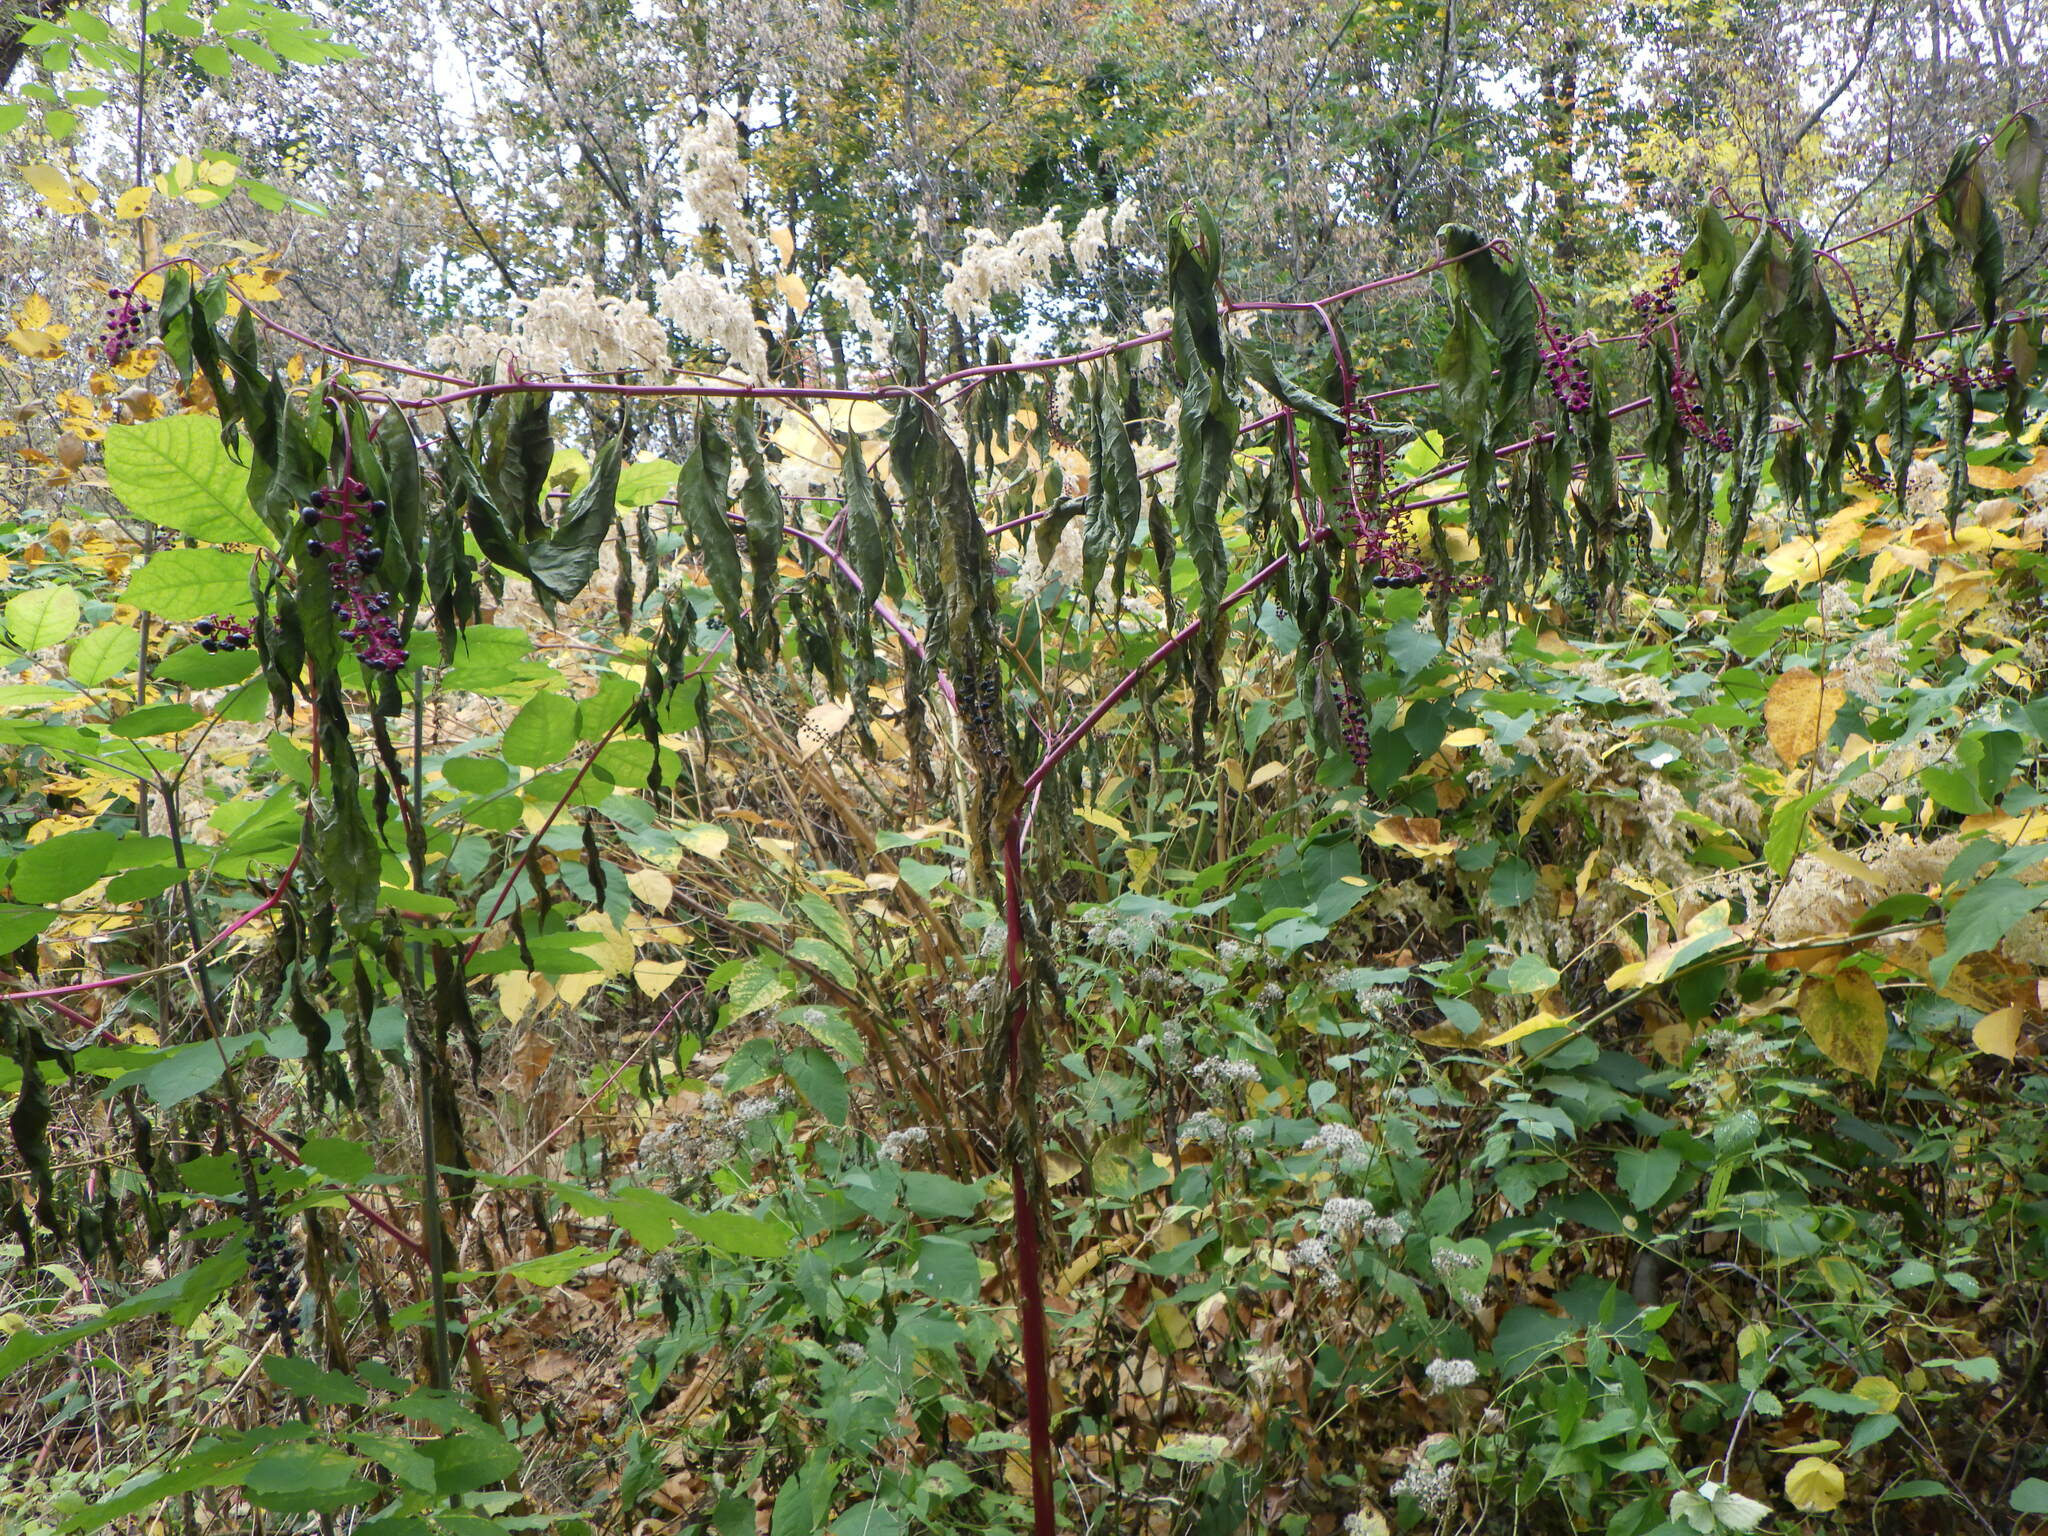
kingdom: Plantae
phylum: Tracheophyta
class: Magnoliopsida
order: Caryophyllales
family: Phytolaccaceae
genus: Phytolacca
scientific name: Phytolacca americana
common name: American pokeweed
